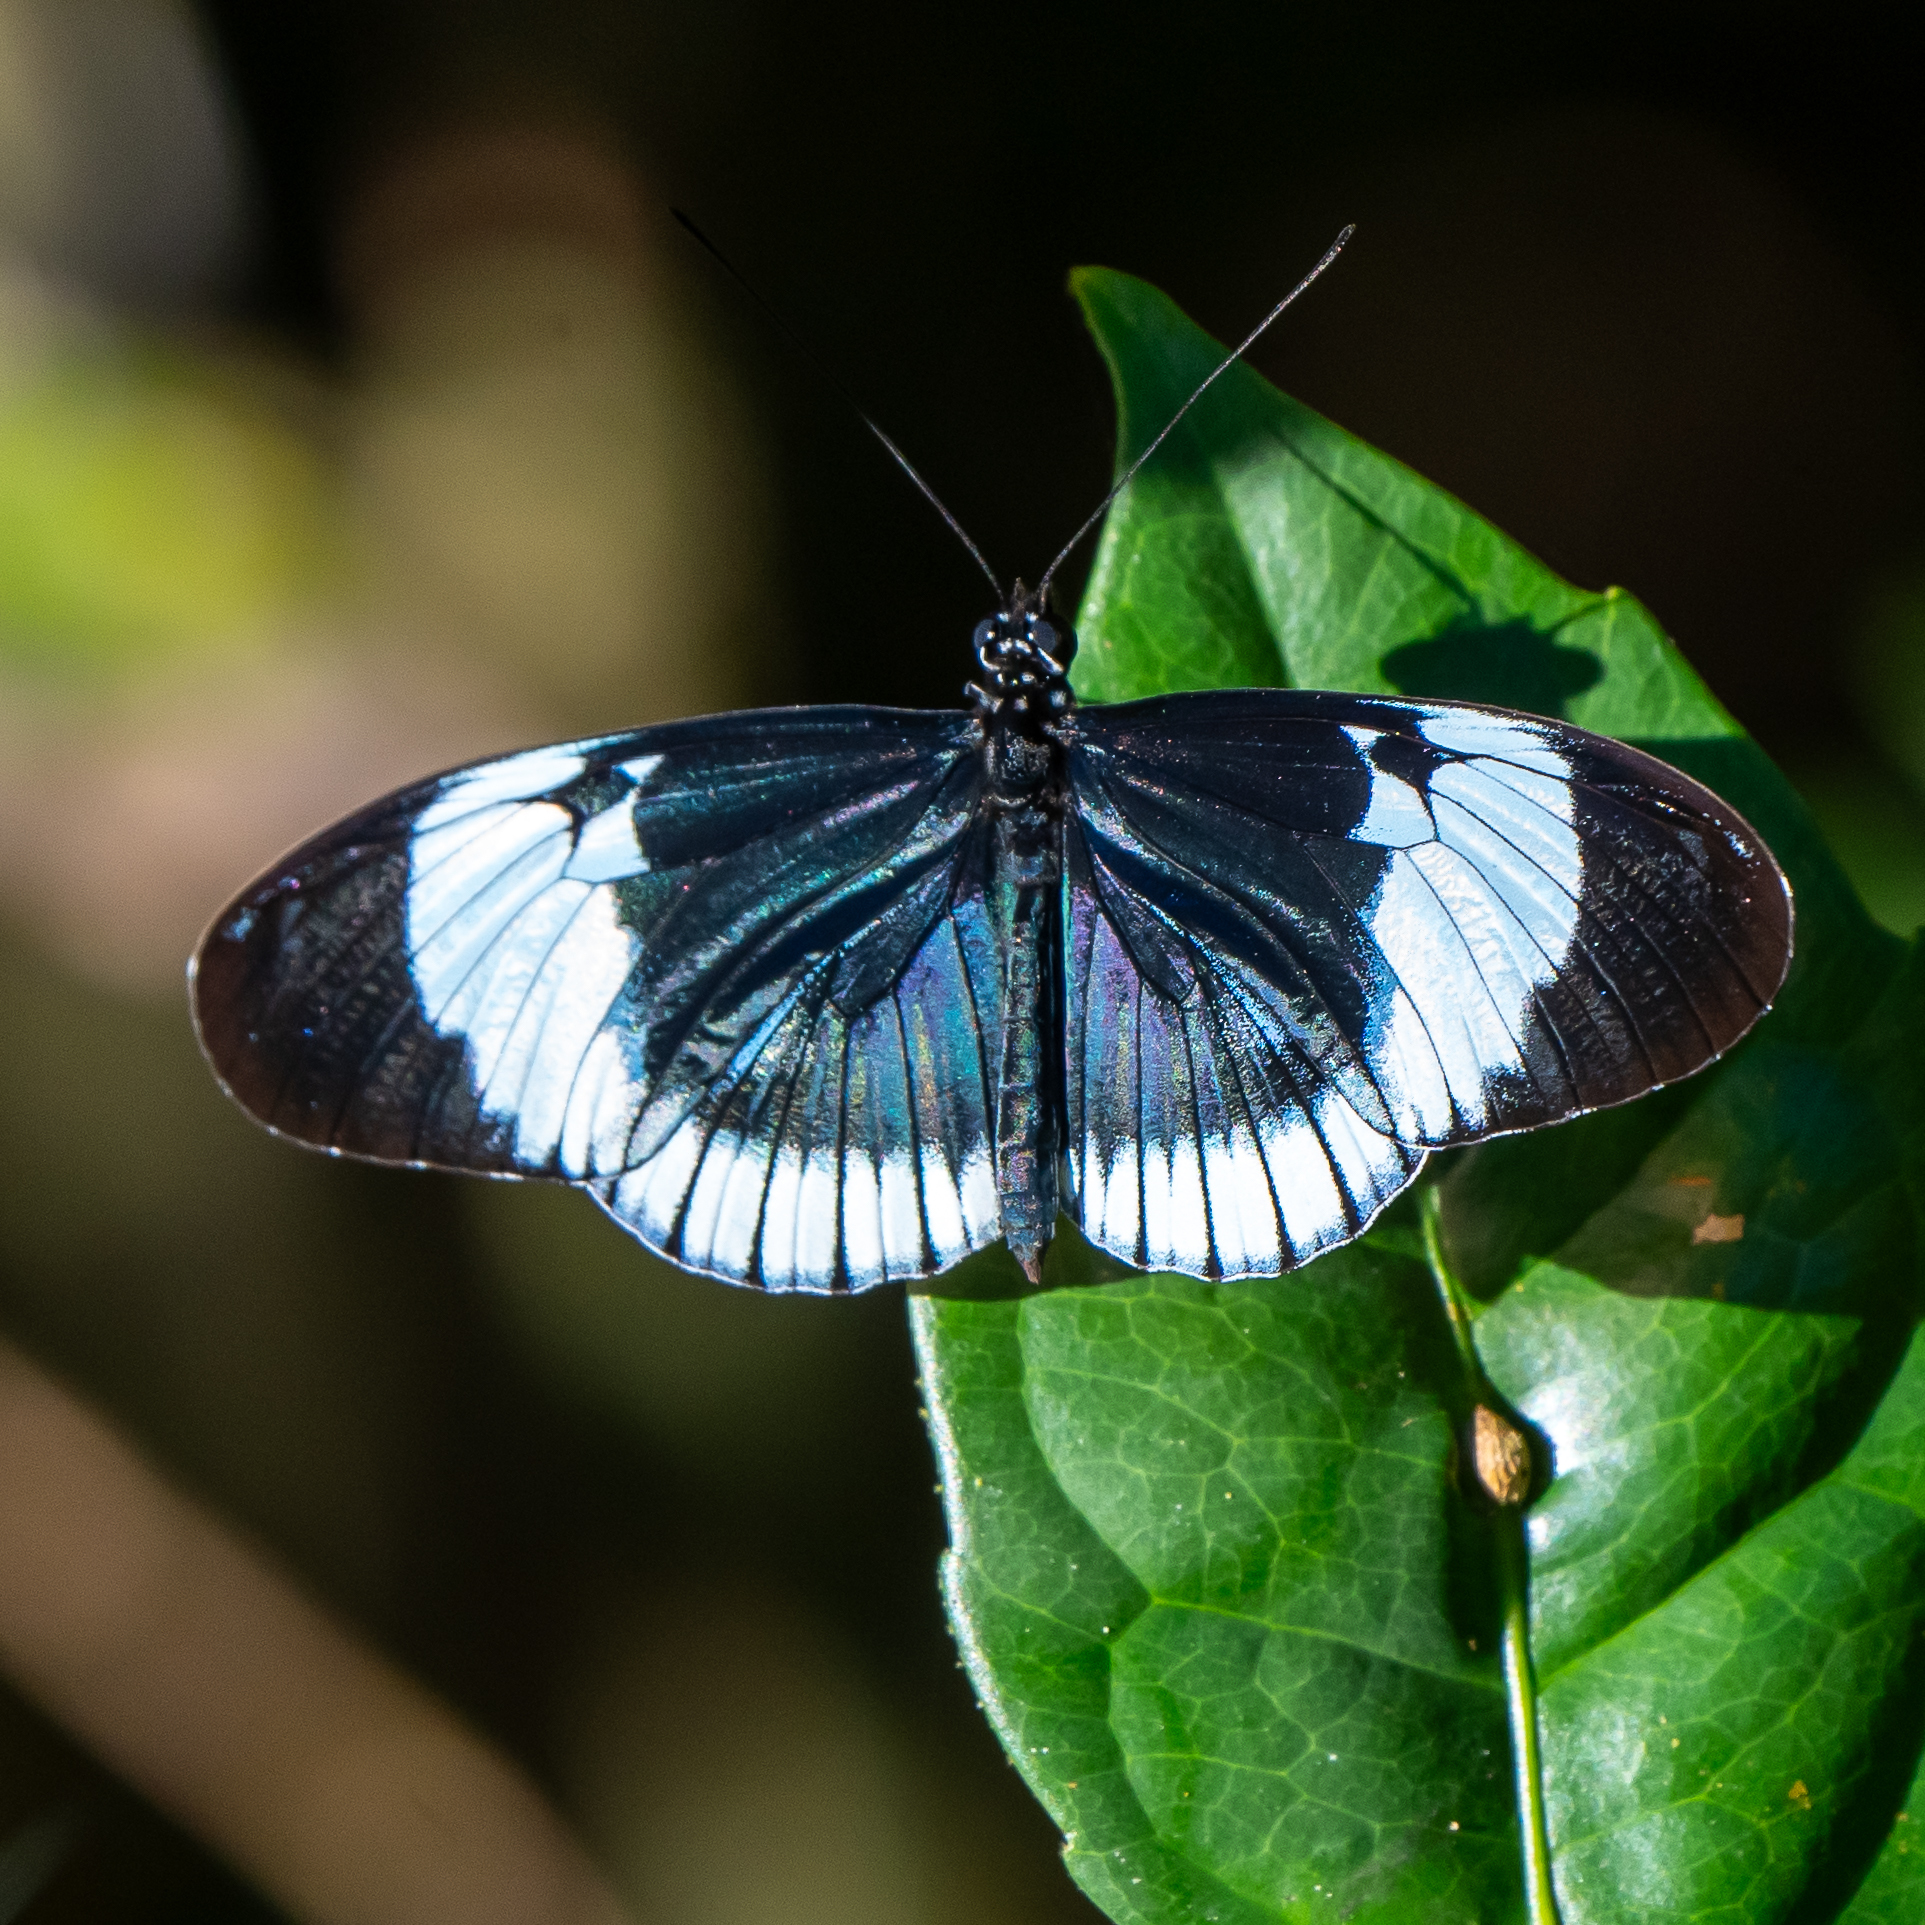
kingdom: Animalia
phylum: Arthropoda
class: Insecta
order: Lepidoptera
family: Nymphalidae
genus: Heliconius
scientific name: Heliconius cydno
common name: Cydno longwing
